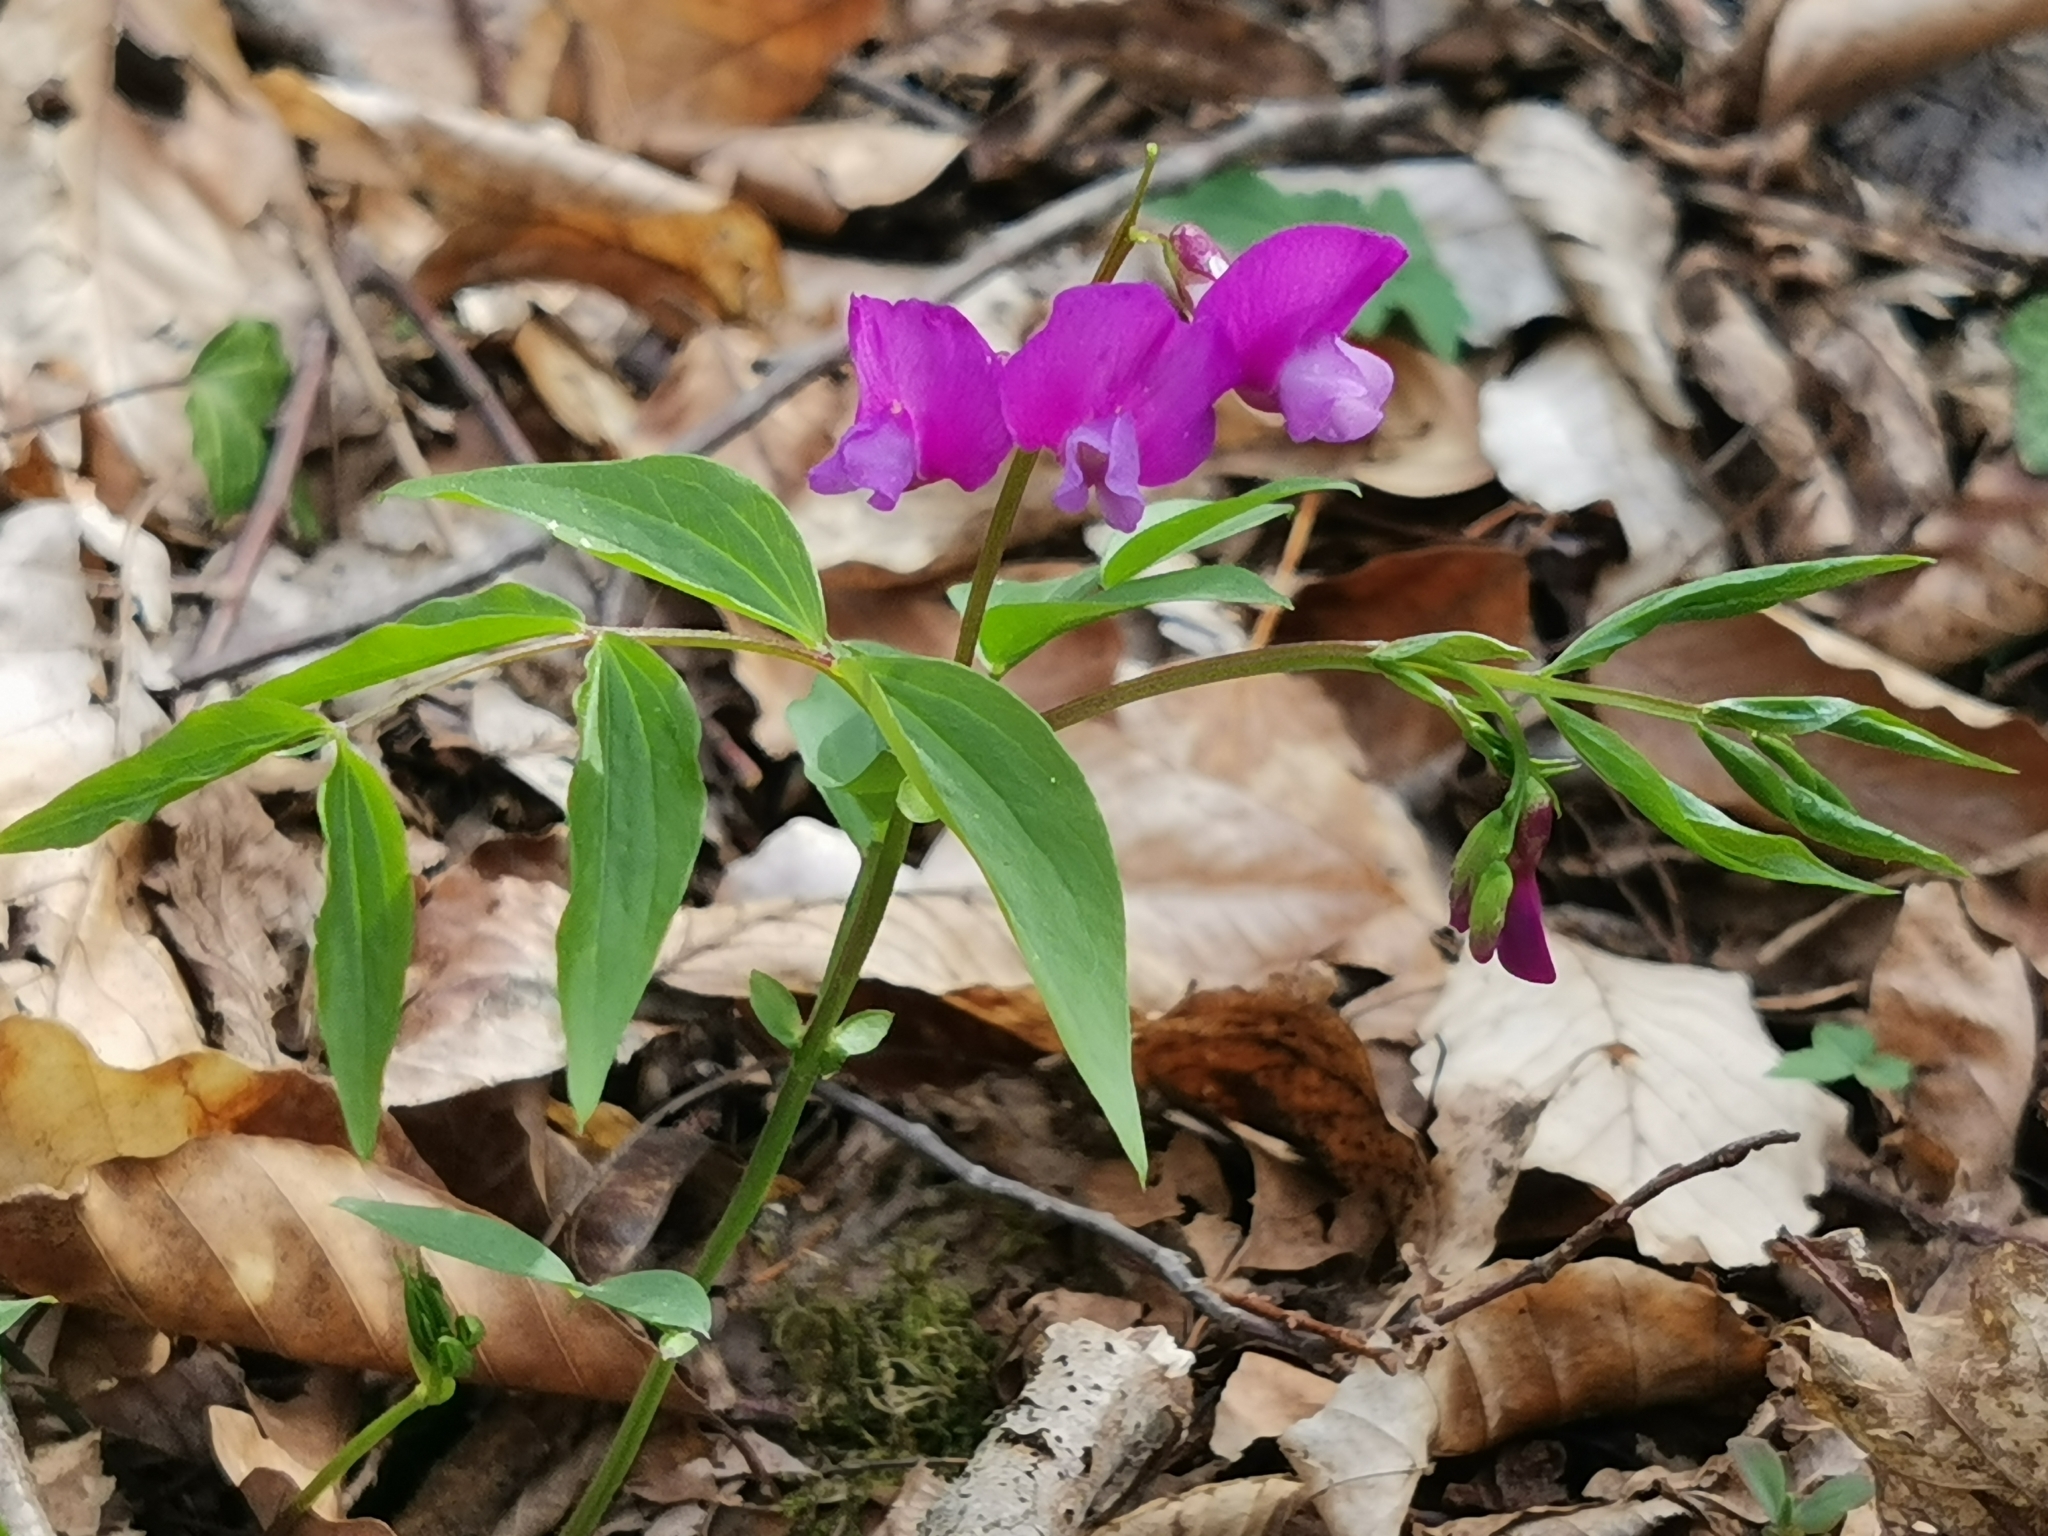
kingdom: Plantae
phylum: Tracheophyta
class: Magnoliopsida
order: Fabales
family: Fabaceae
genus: Lathyrus
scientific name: Lathyrus vernus
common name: Spring pea
